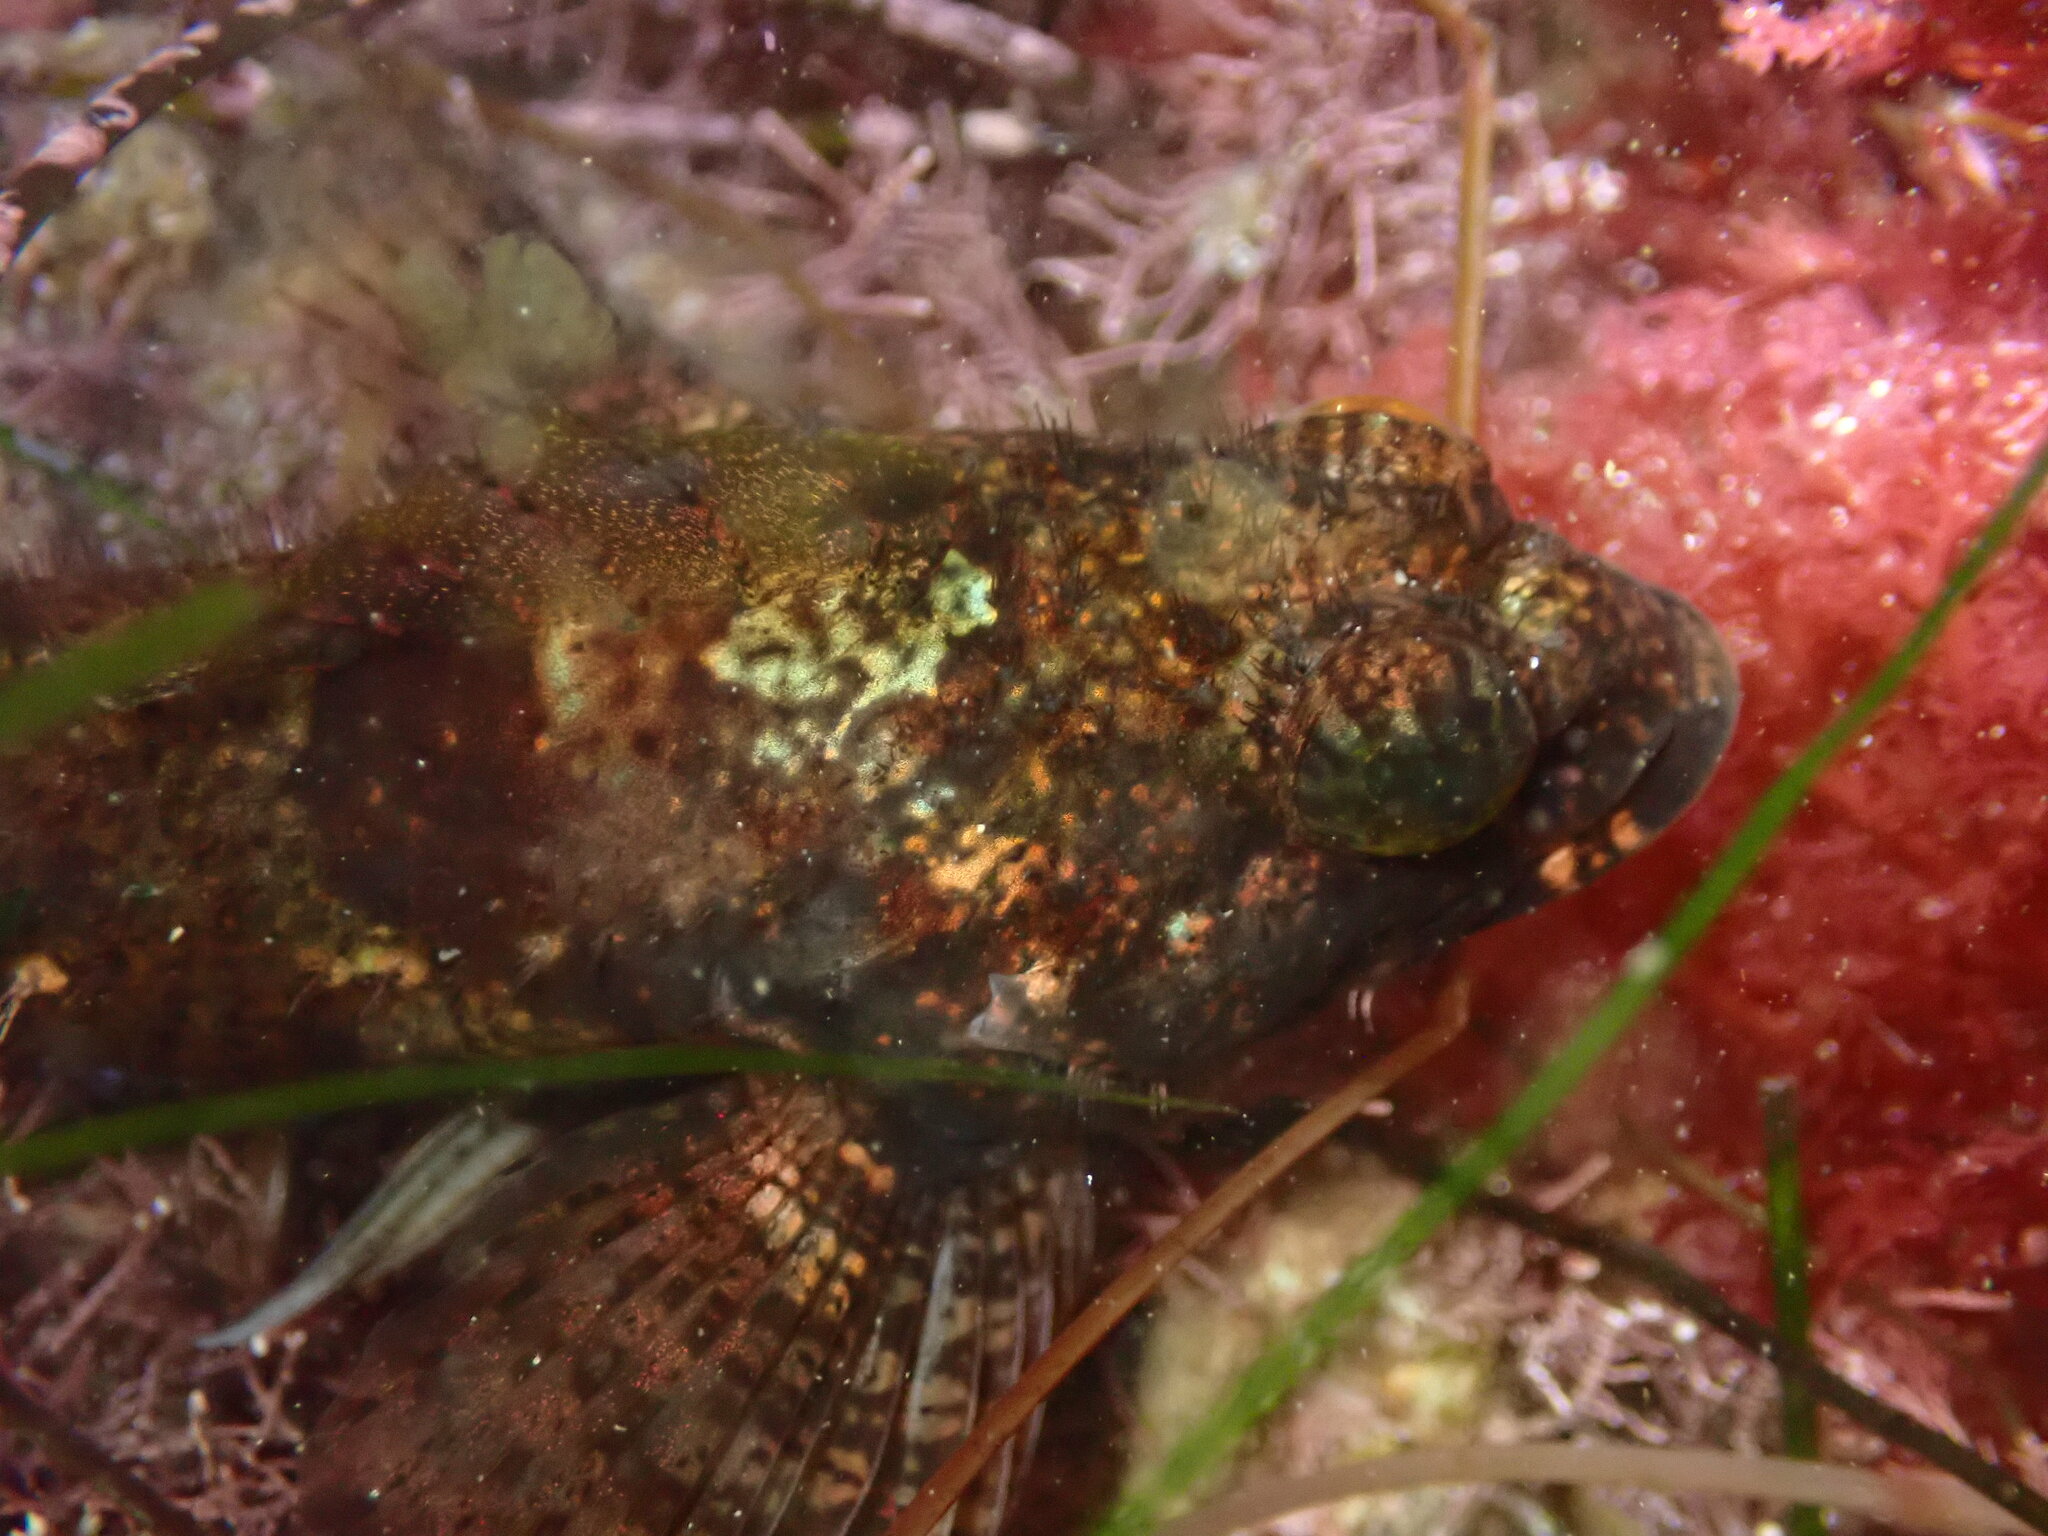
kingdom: Animalia
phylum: Chordata
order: Scorpaeniformes
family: Cottidae
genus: Clinocottus
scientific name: Clinocottus analis
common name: Woolly sculpin
